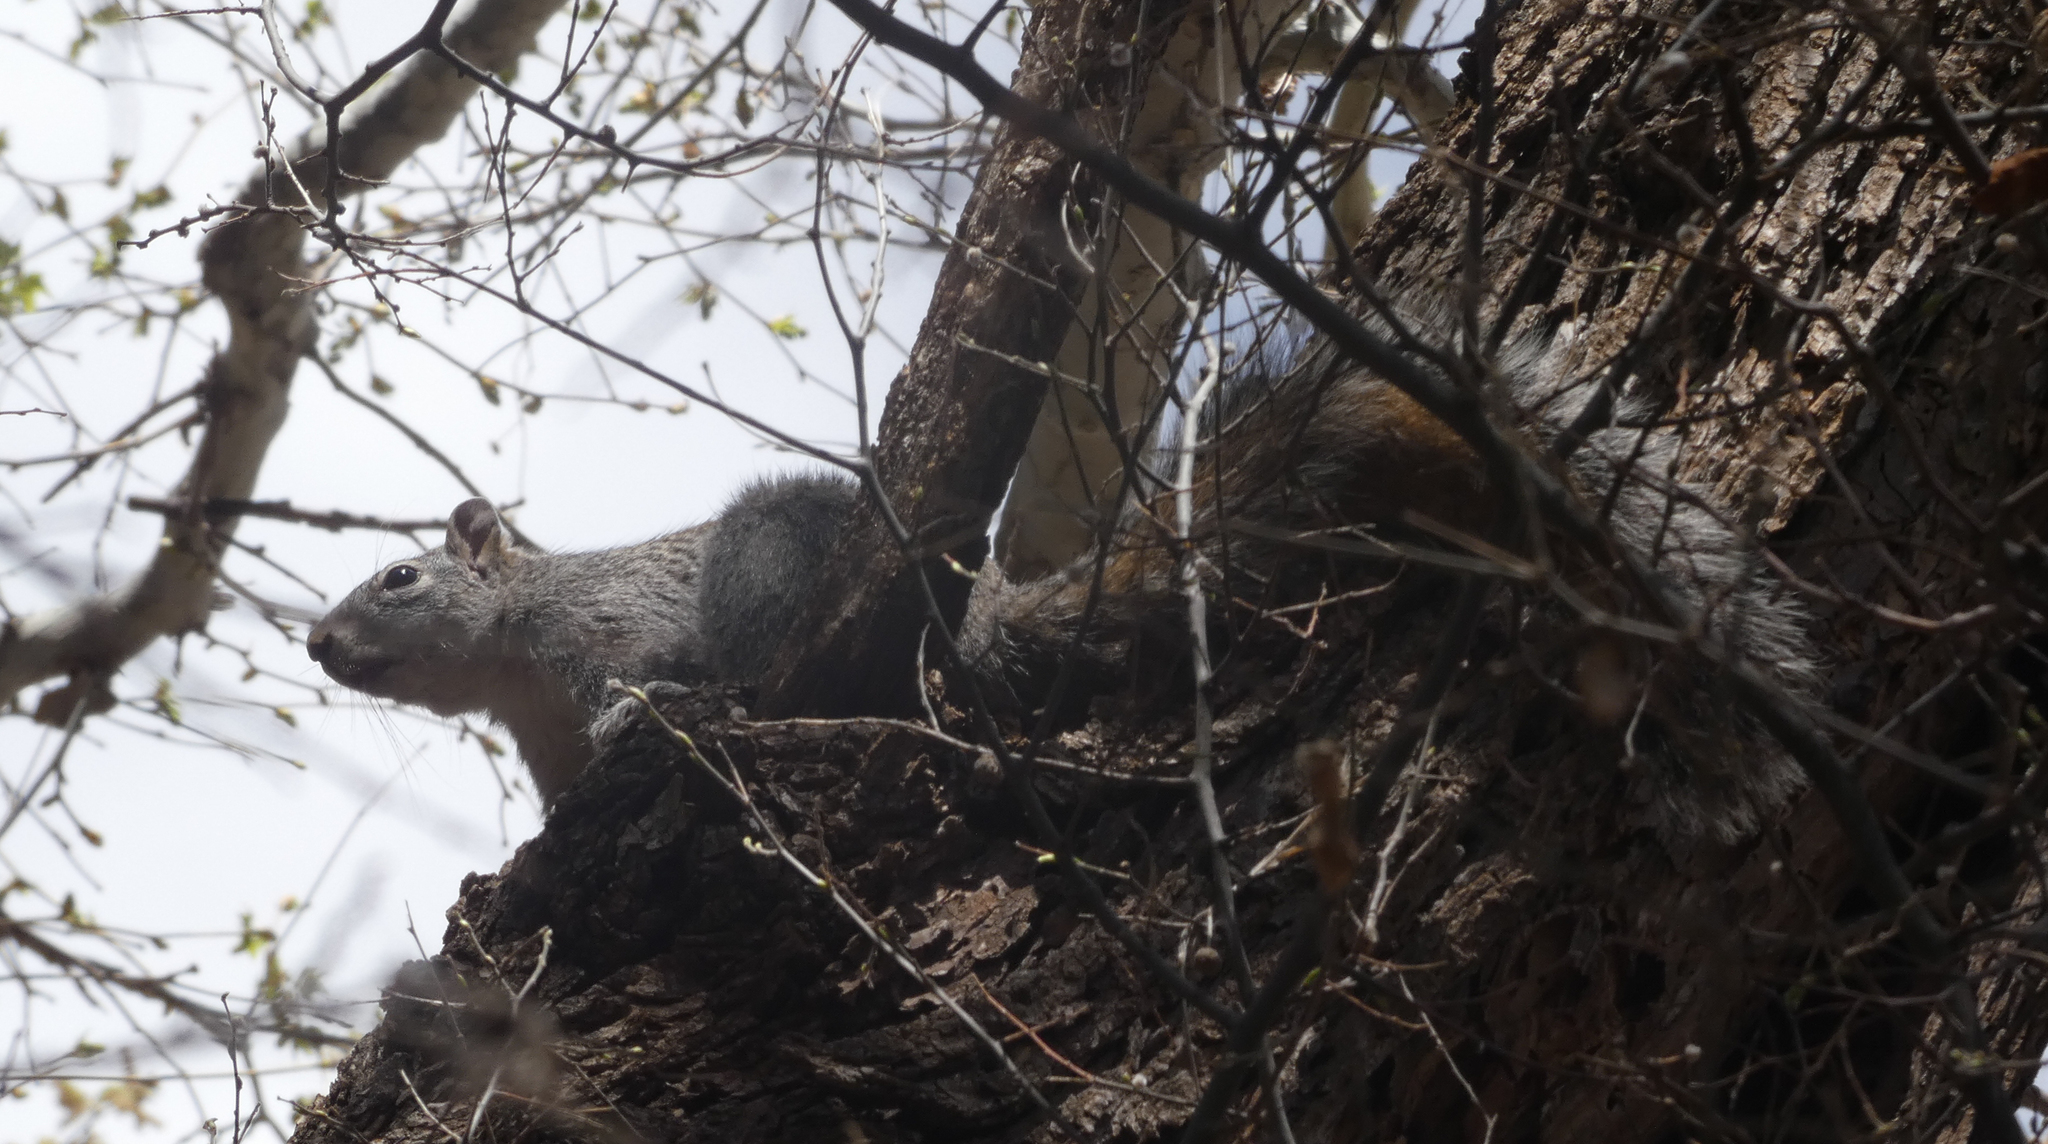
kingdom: Animalia
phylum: Chordata
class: Mammalia
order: Rodentia
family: Sciuridae
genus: Sciurus
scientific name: Sciurus arizonensis
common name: Arizona gray squirrel
